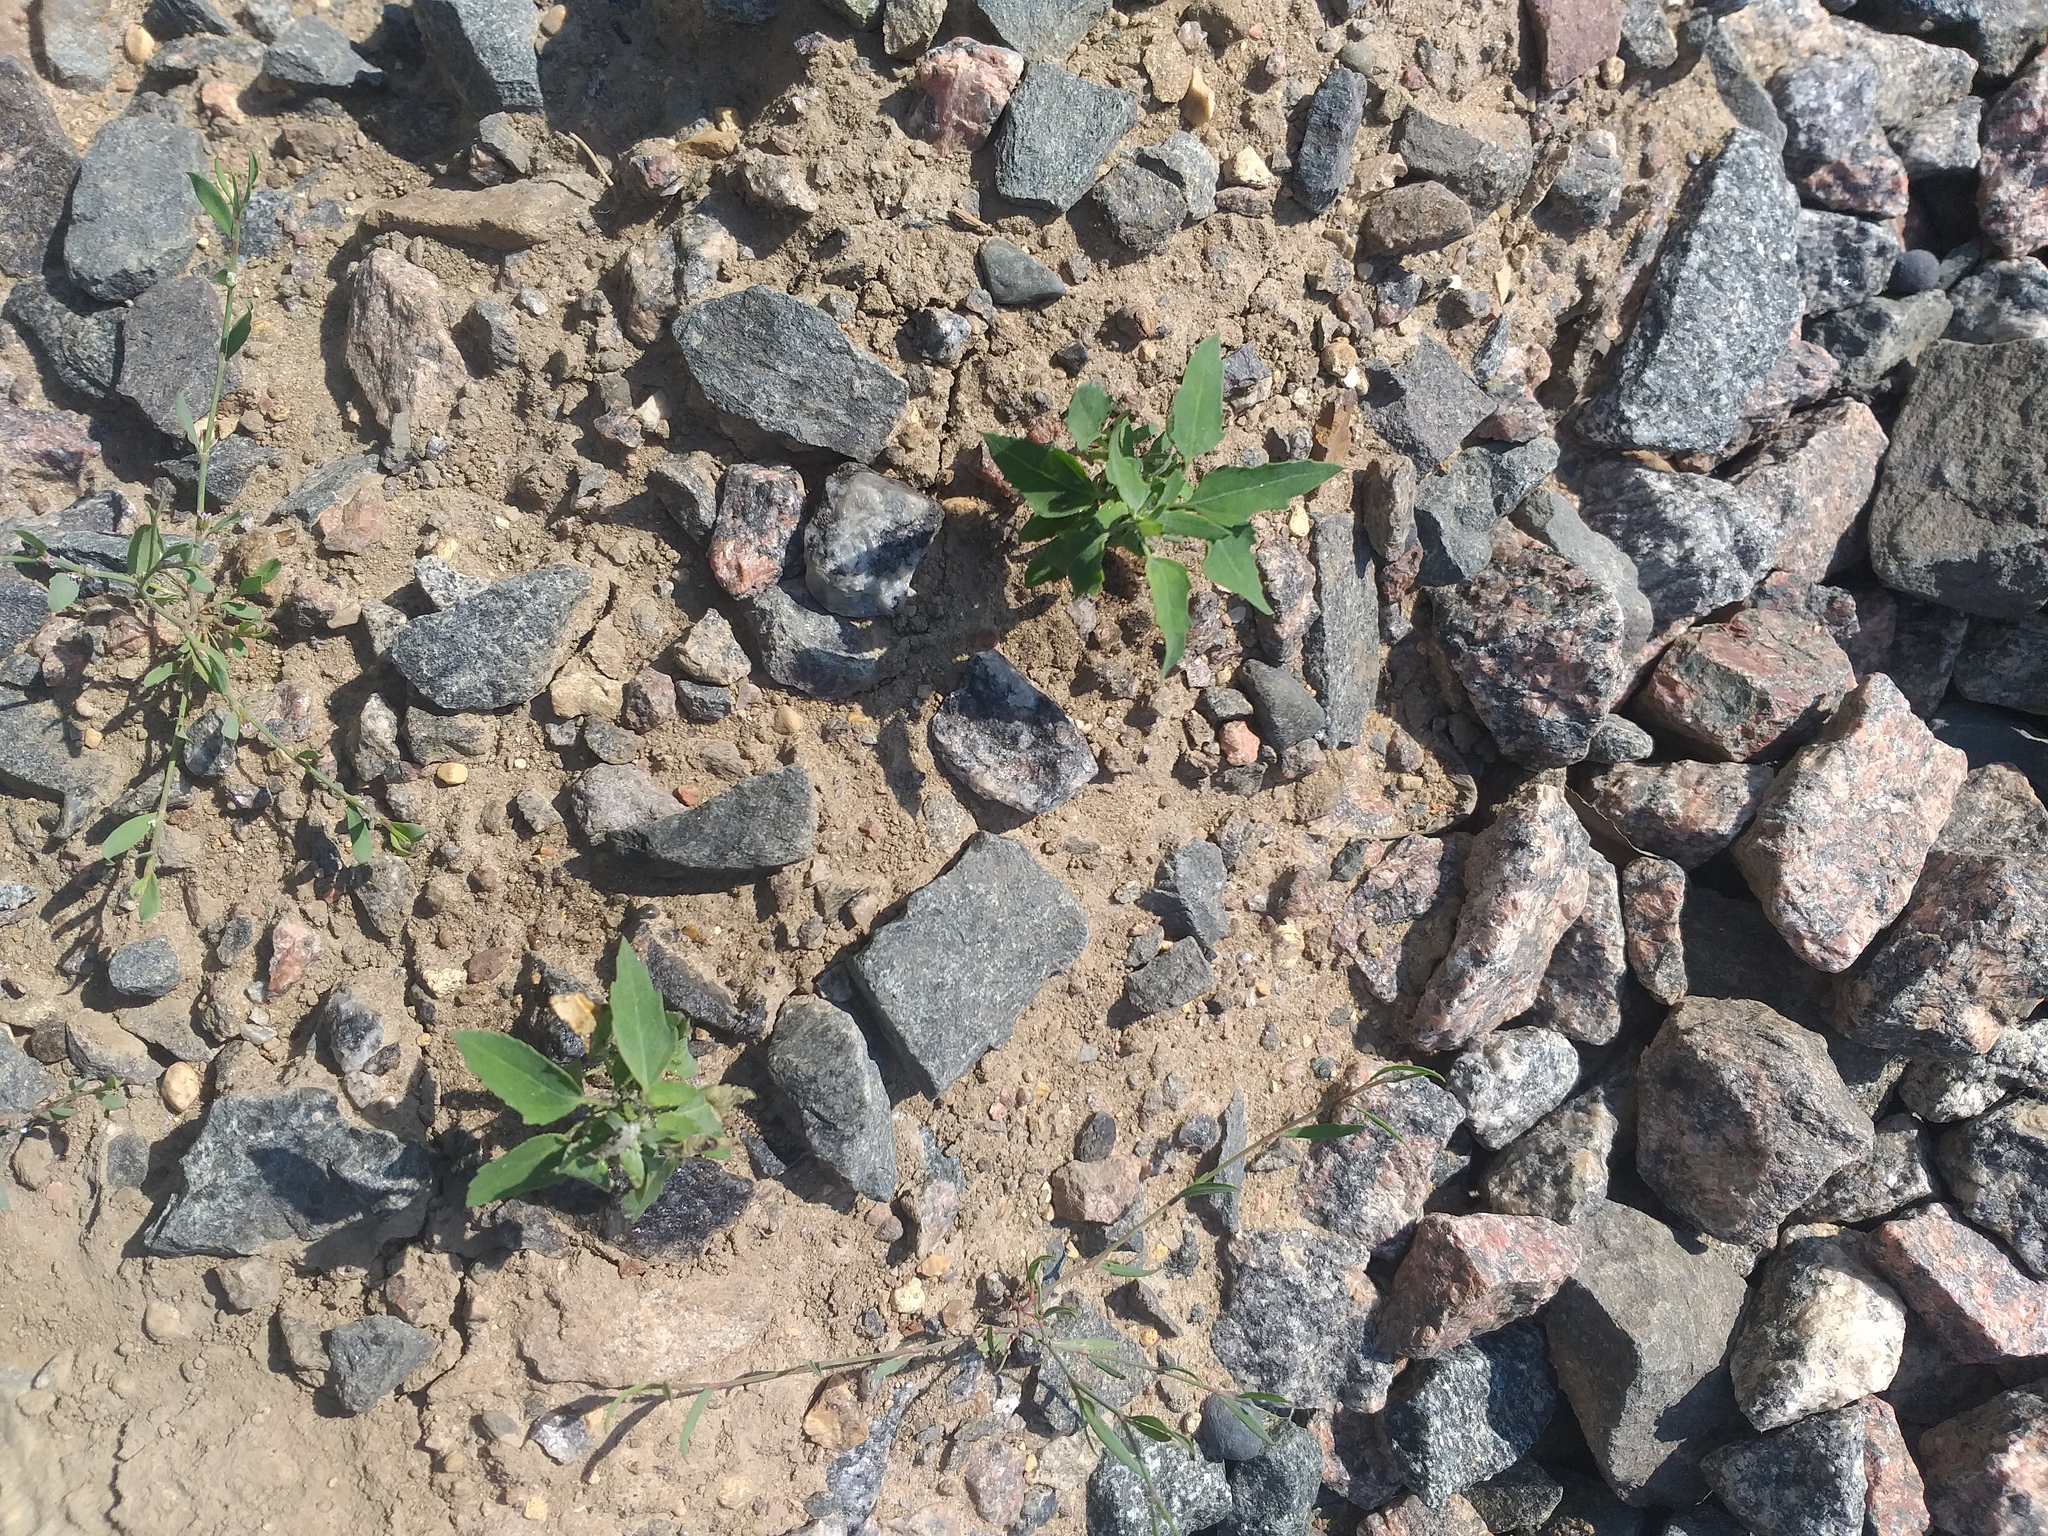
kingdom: Plantae
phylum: Tracheophyta
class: Magnoliopsida
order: Caryophyllales
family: Amaranthaceae
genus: Chenopodium
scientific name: Chenopodium album
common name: Fat-hen
